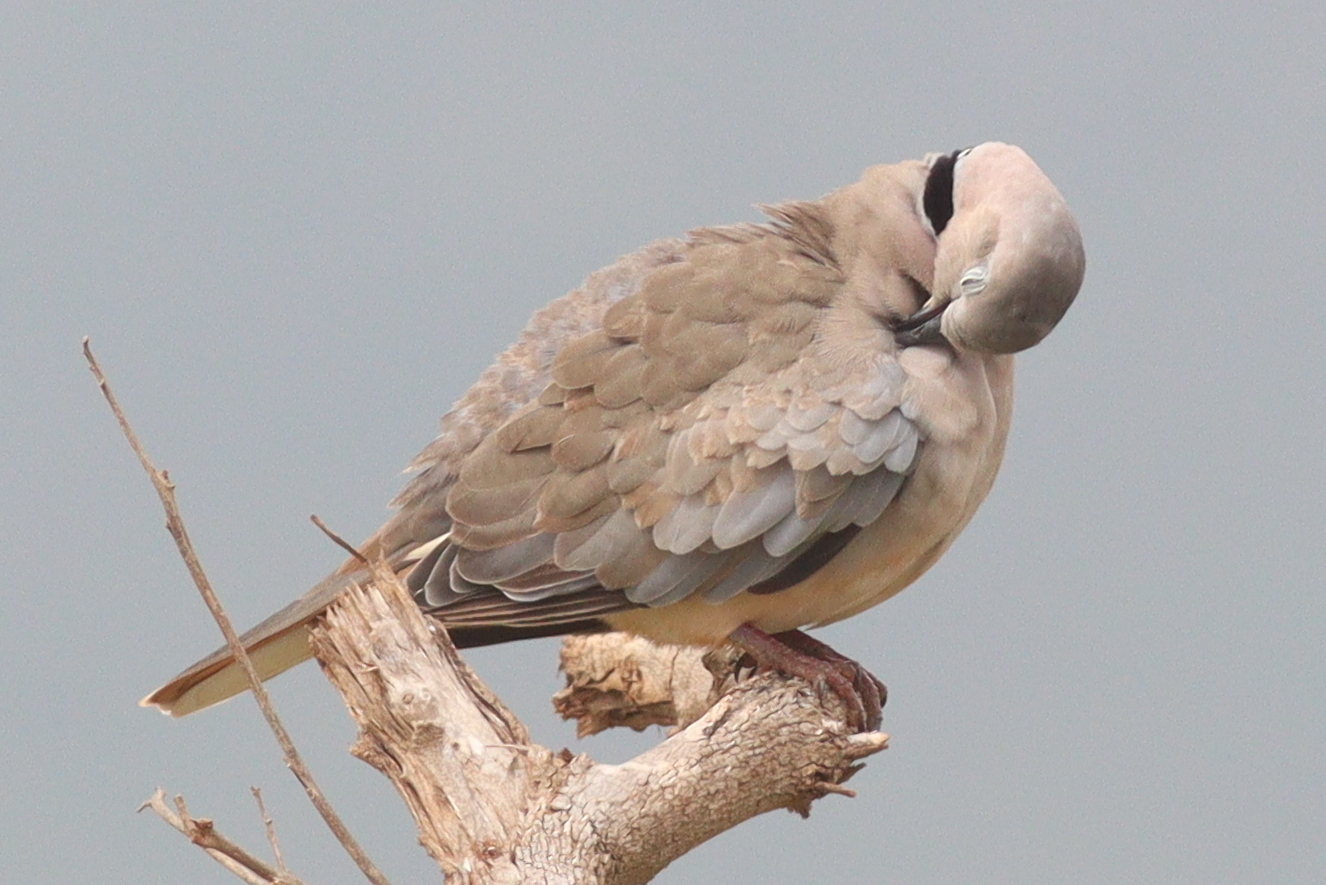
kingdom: Animalia
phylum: Chordata
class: Aves
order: Columbiformes
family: Columbidae
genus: Streptopelia
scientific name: Streptopelia capicola
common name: Ring-necked dove
